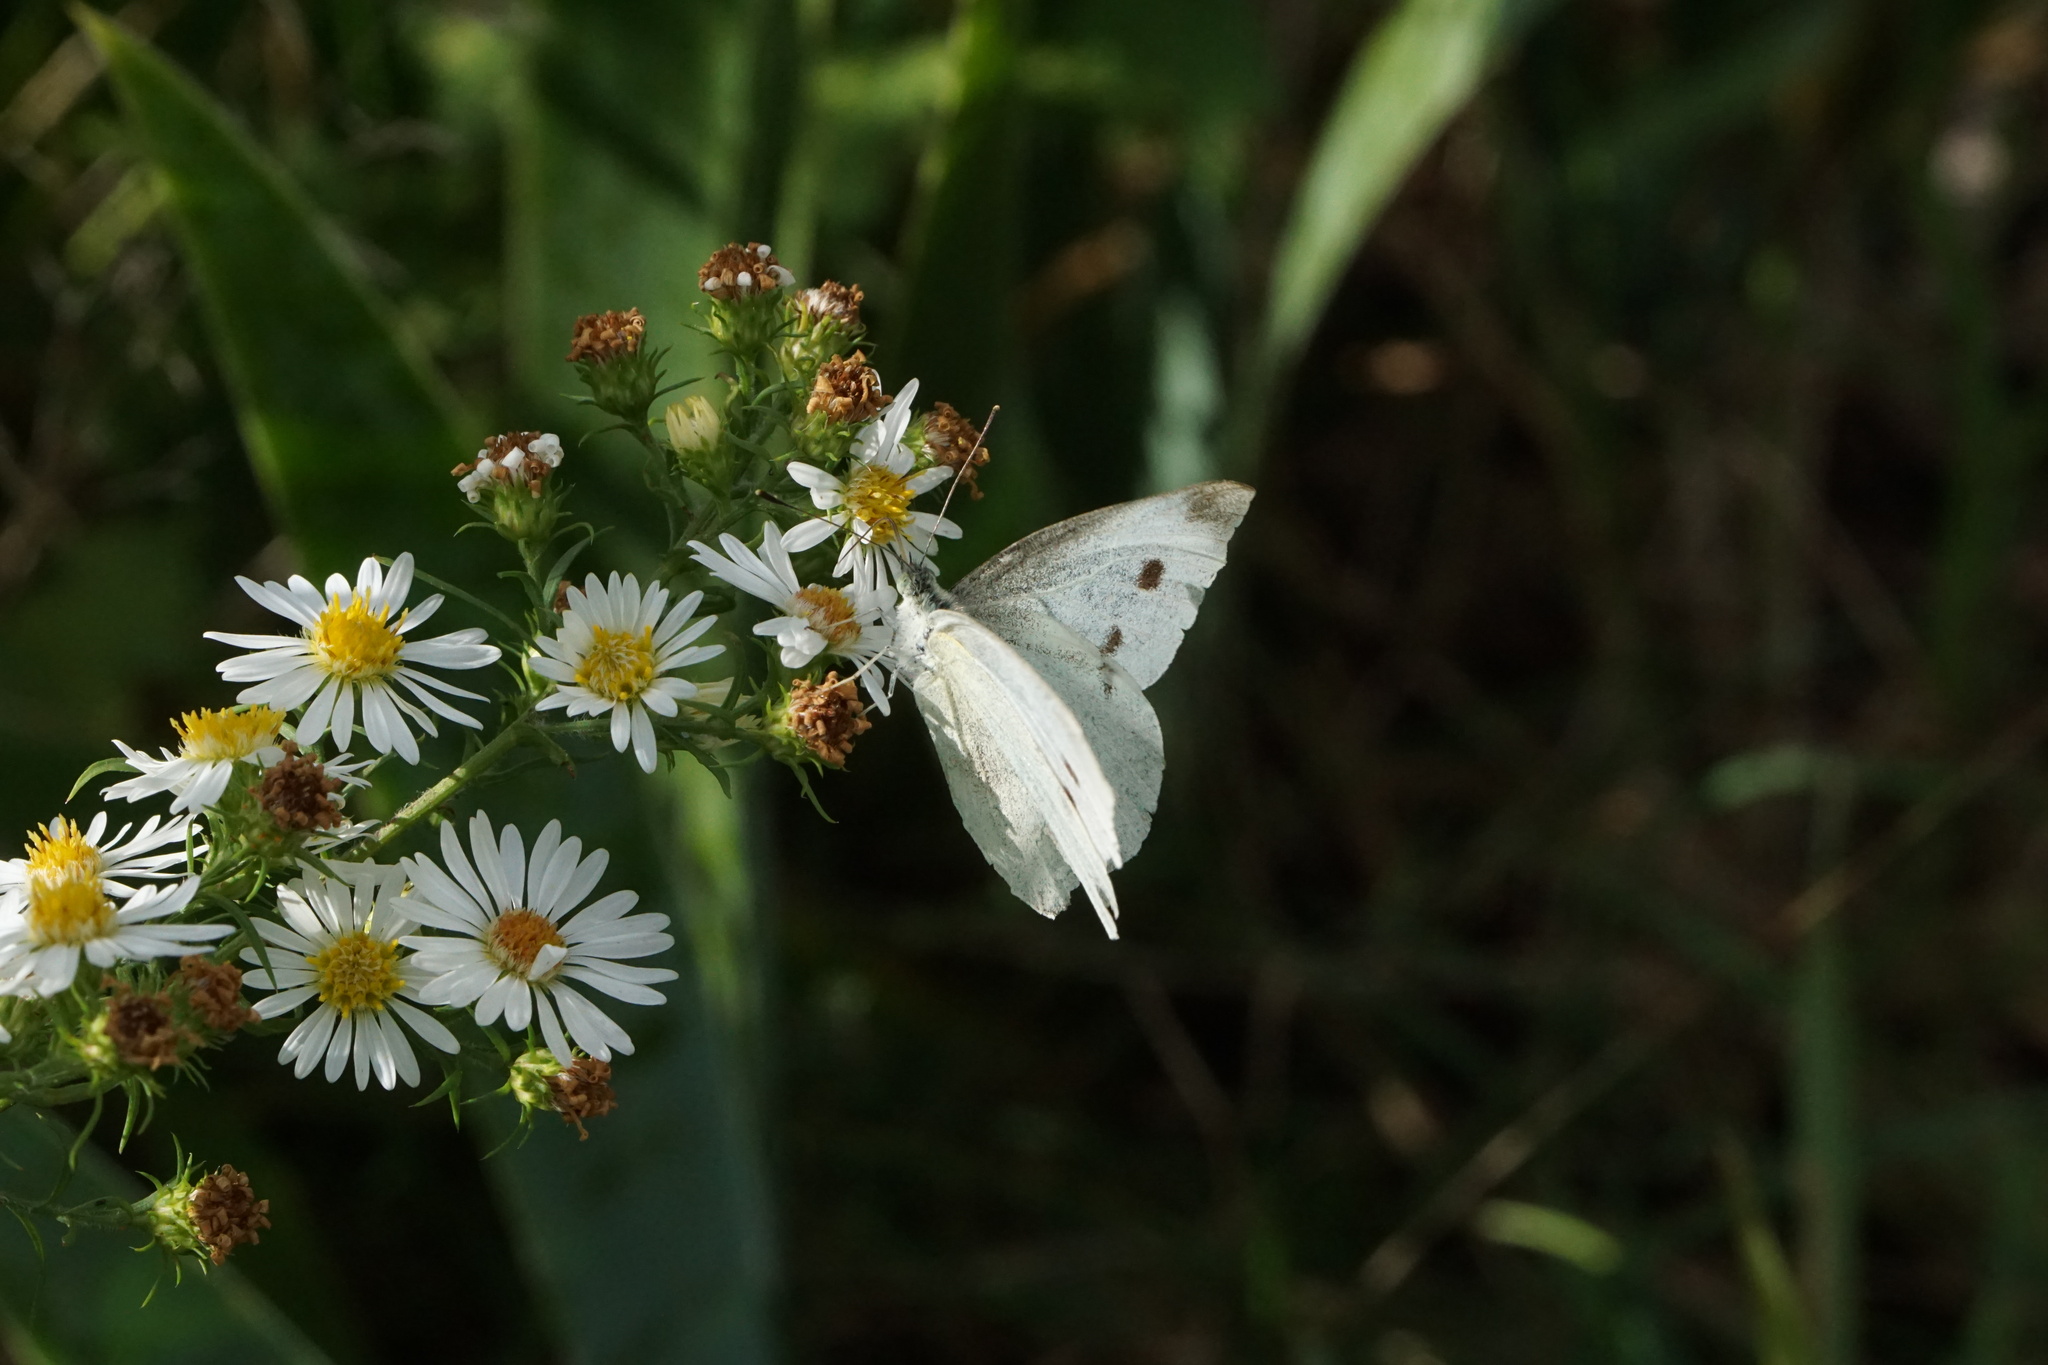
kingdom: Animalia
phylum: Arthropoda
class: Insecta
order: Lepidoptera
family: Pieridae
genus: Pieris
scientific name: Pieris rapae
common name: Small white
